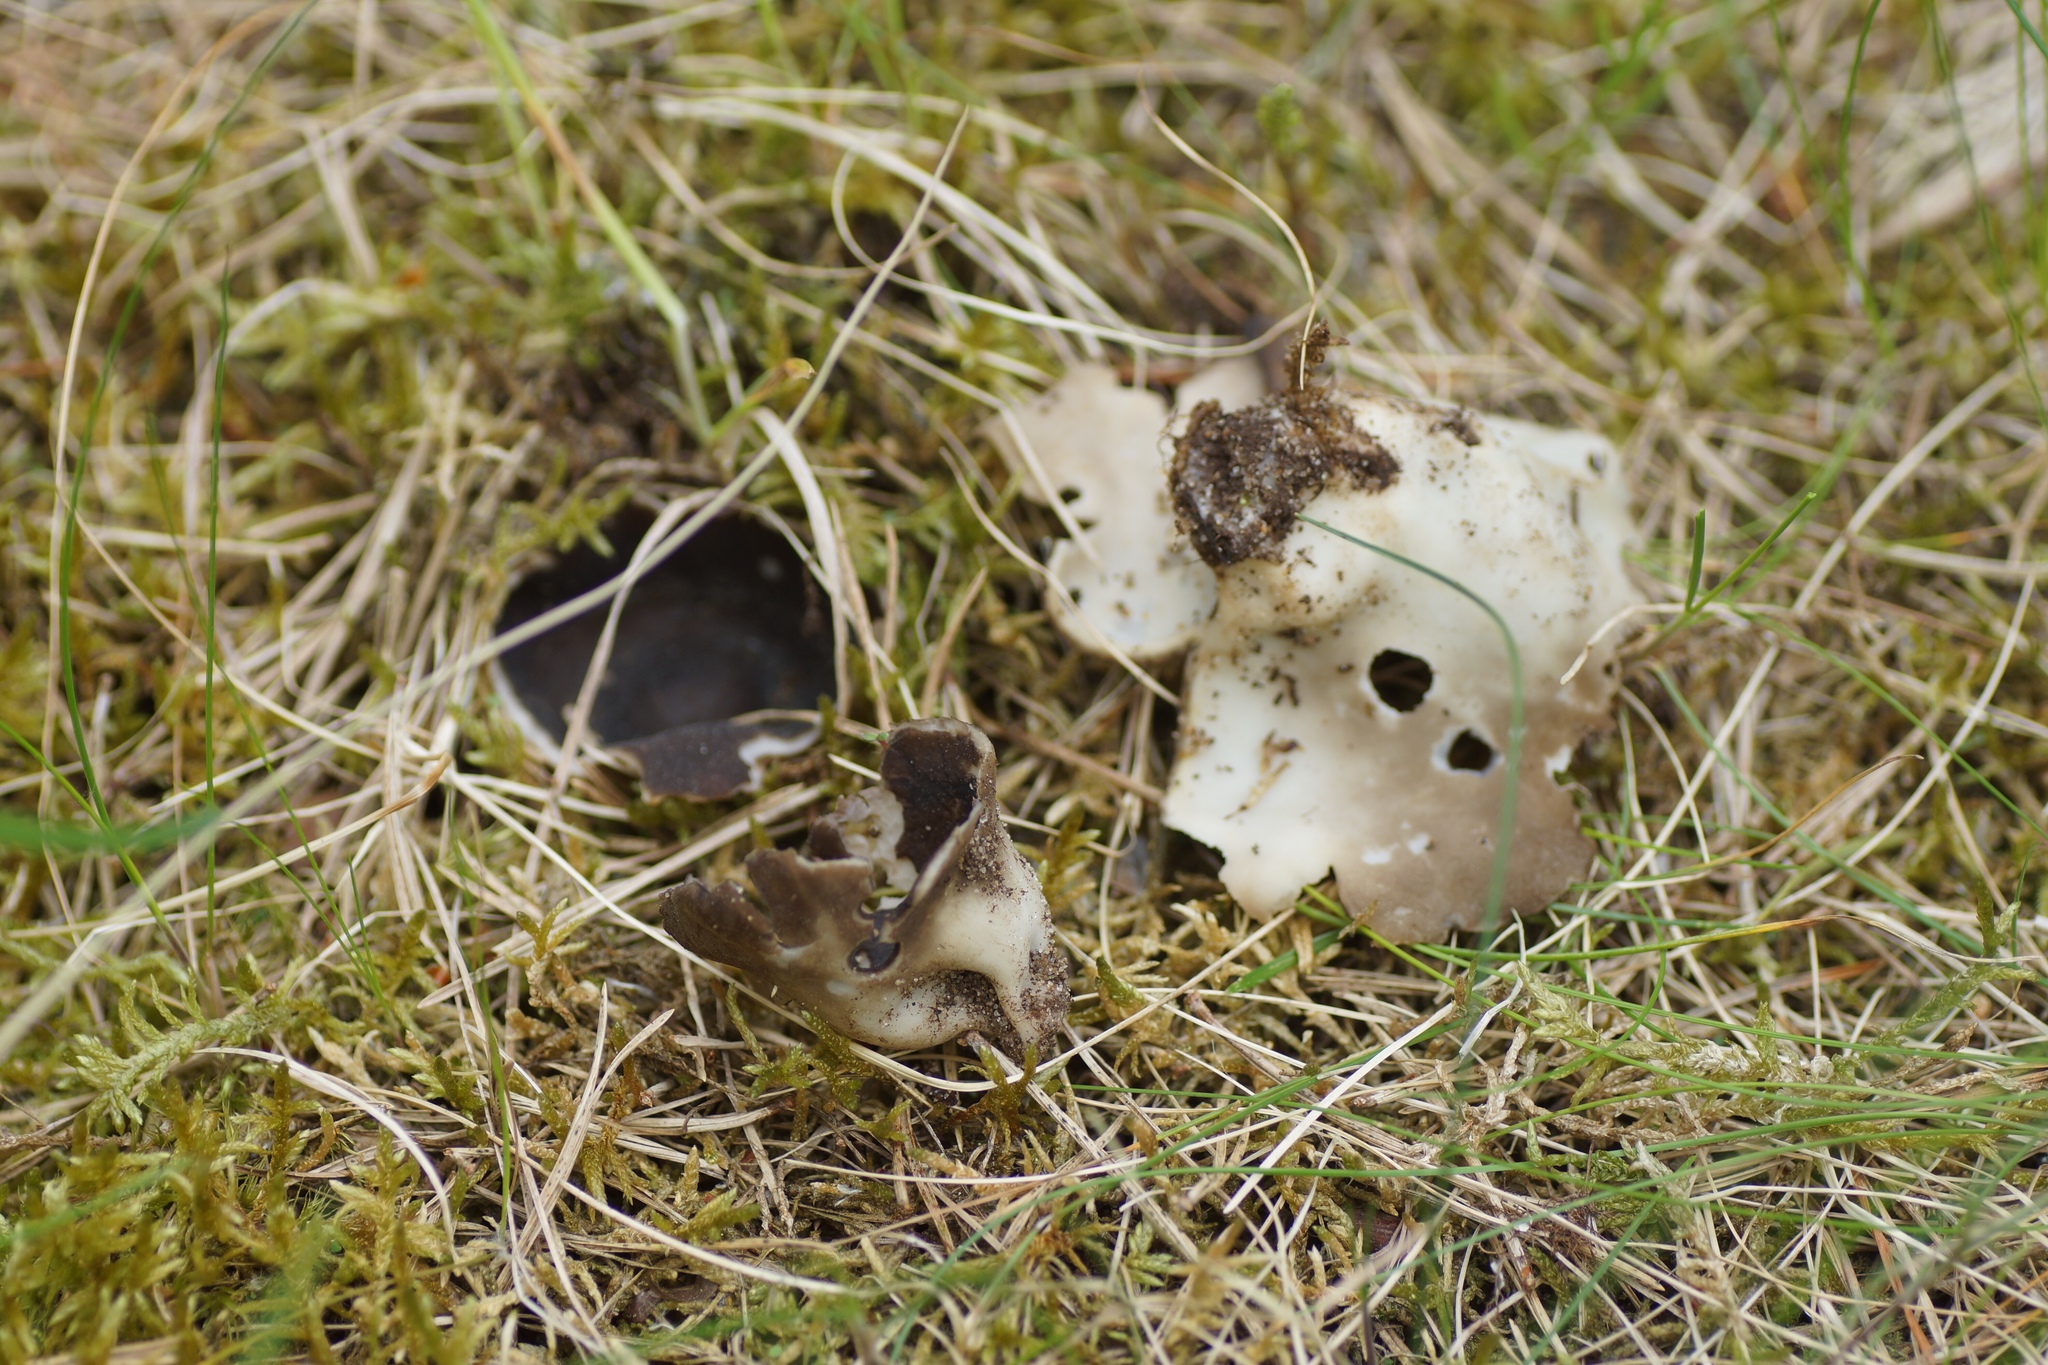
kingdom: Fungi
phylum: Ascomycota
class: Pezizomycetes
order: Pezizales
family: Helvellaceae
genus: Dissingia
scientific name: Dissingia leucomelaena
